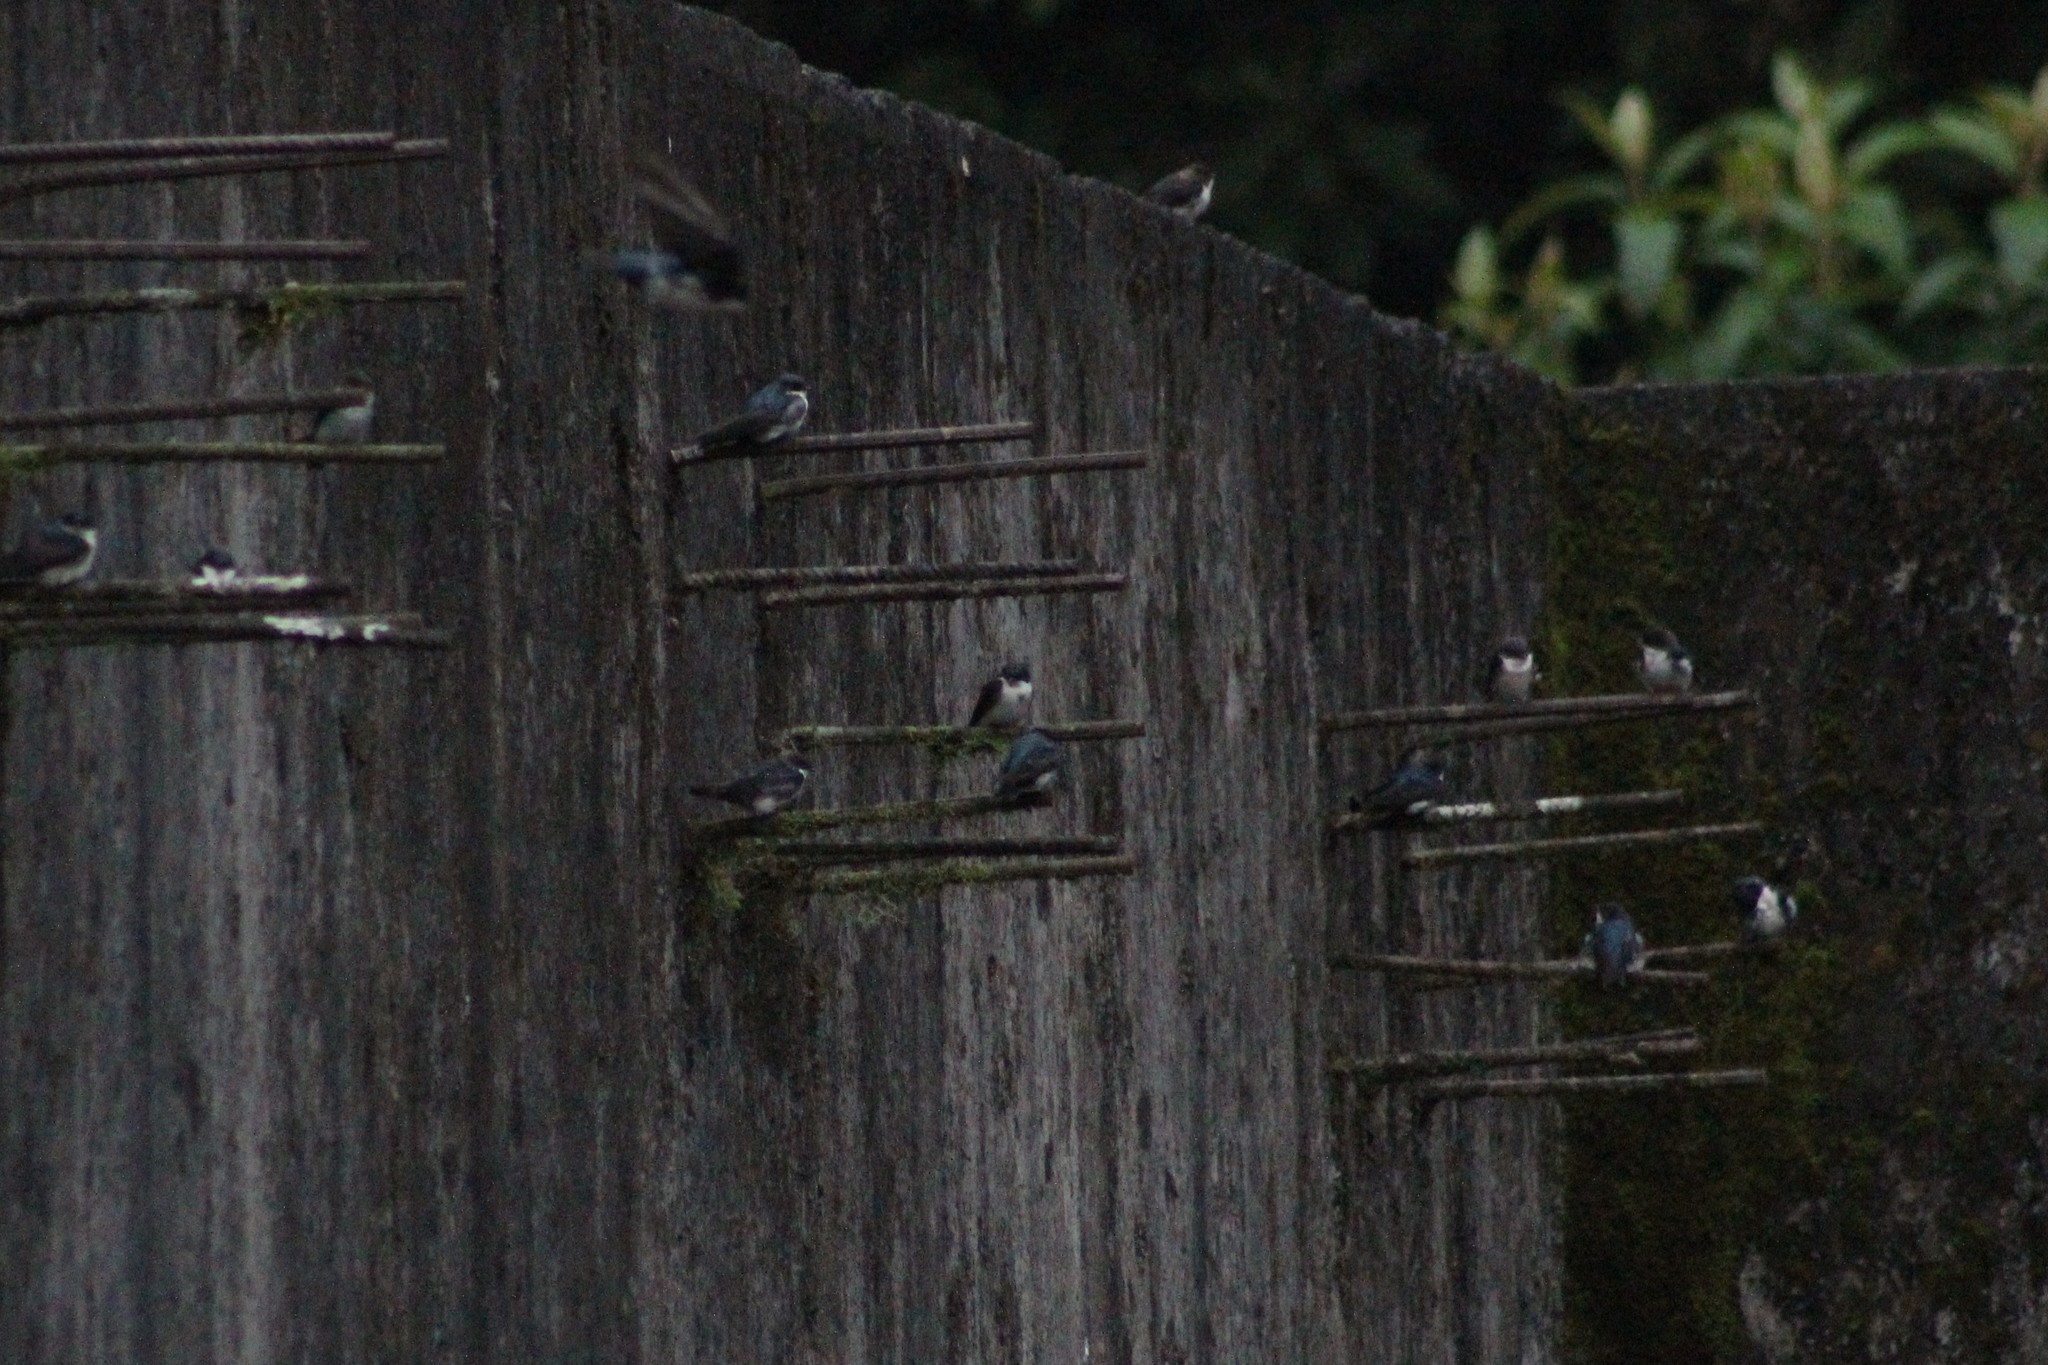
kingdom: Animalia
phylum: Chordata
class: Aves
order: Passeriformes
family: Hirundinidae
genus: Notiochelidon
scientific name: Notiochelidon cyanoleuca
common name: Blue-and-white swallow
